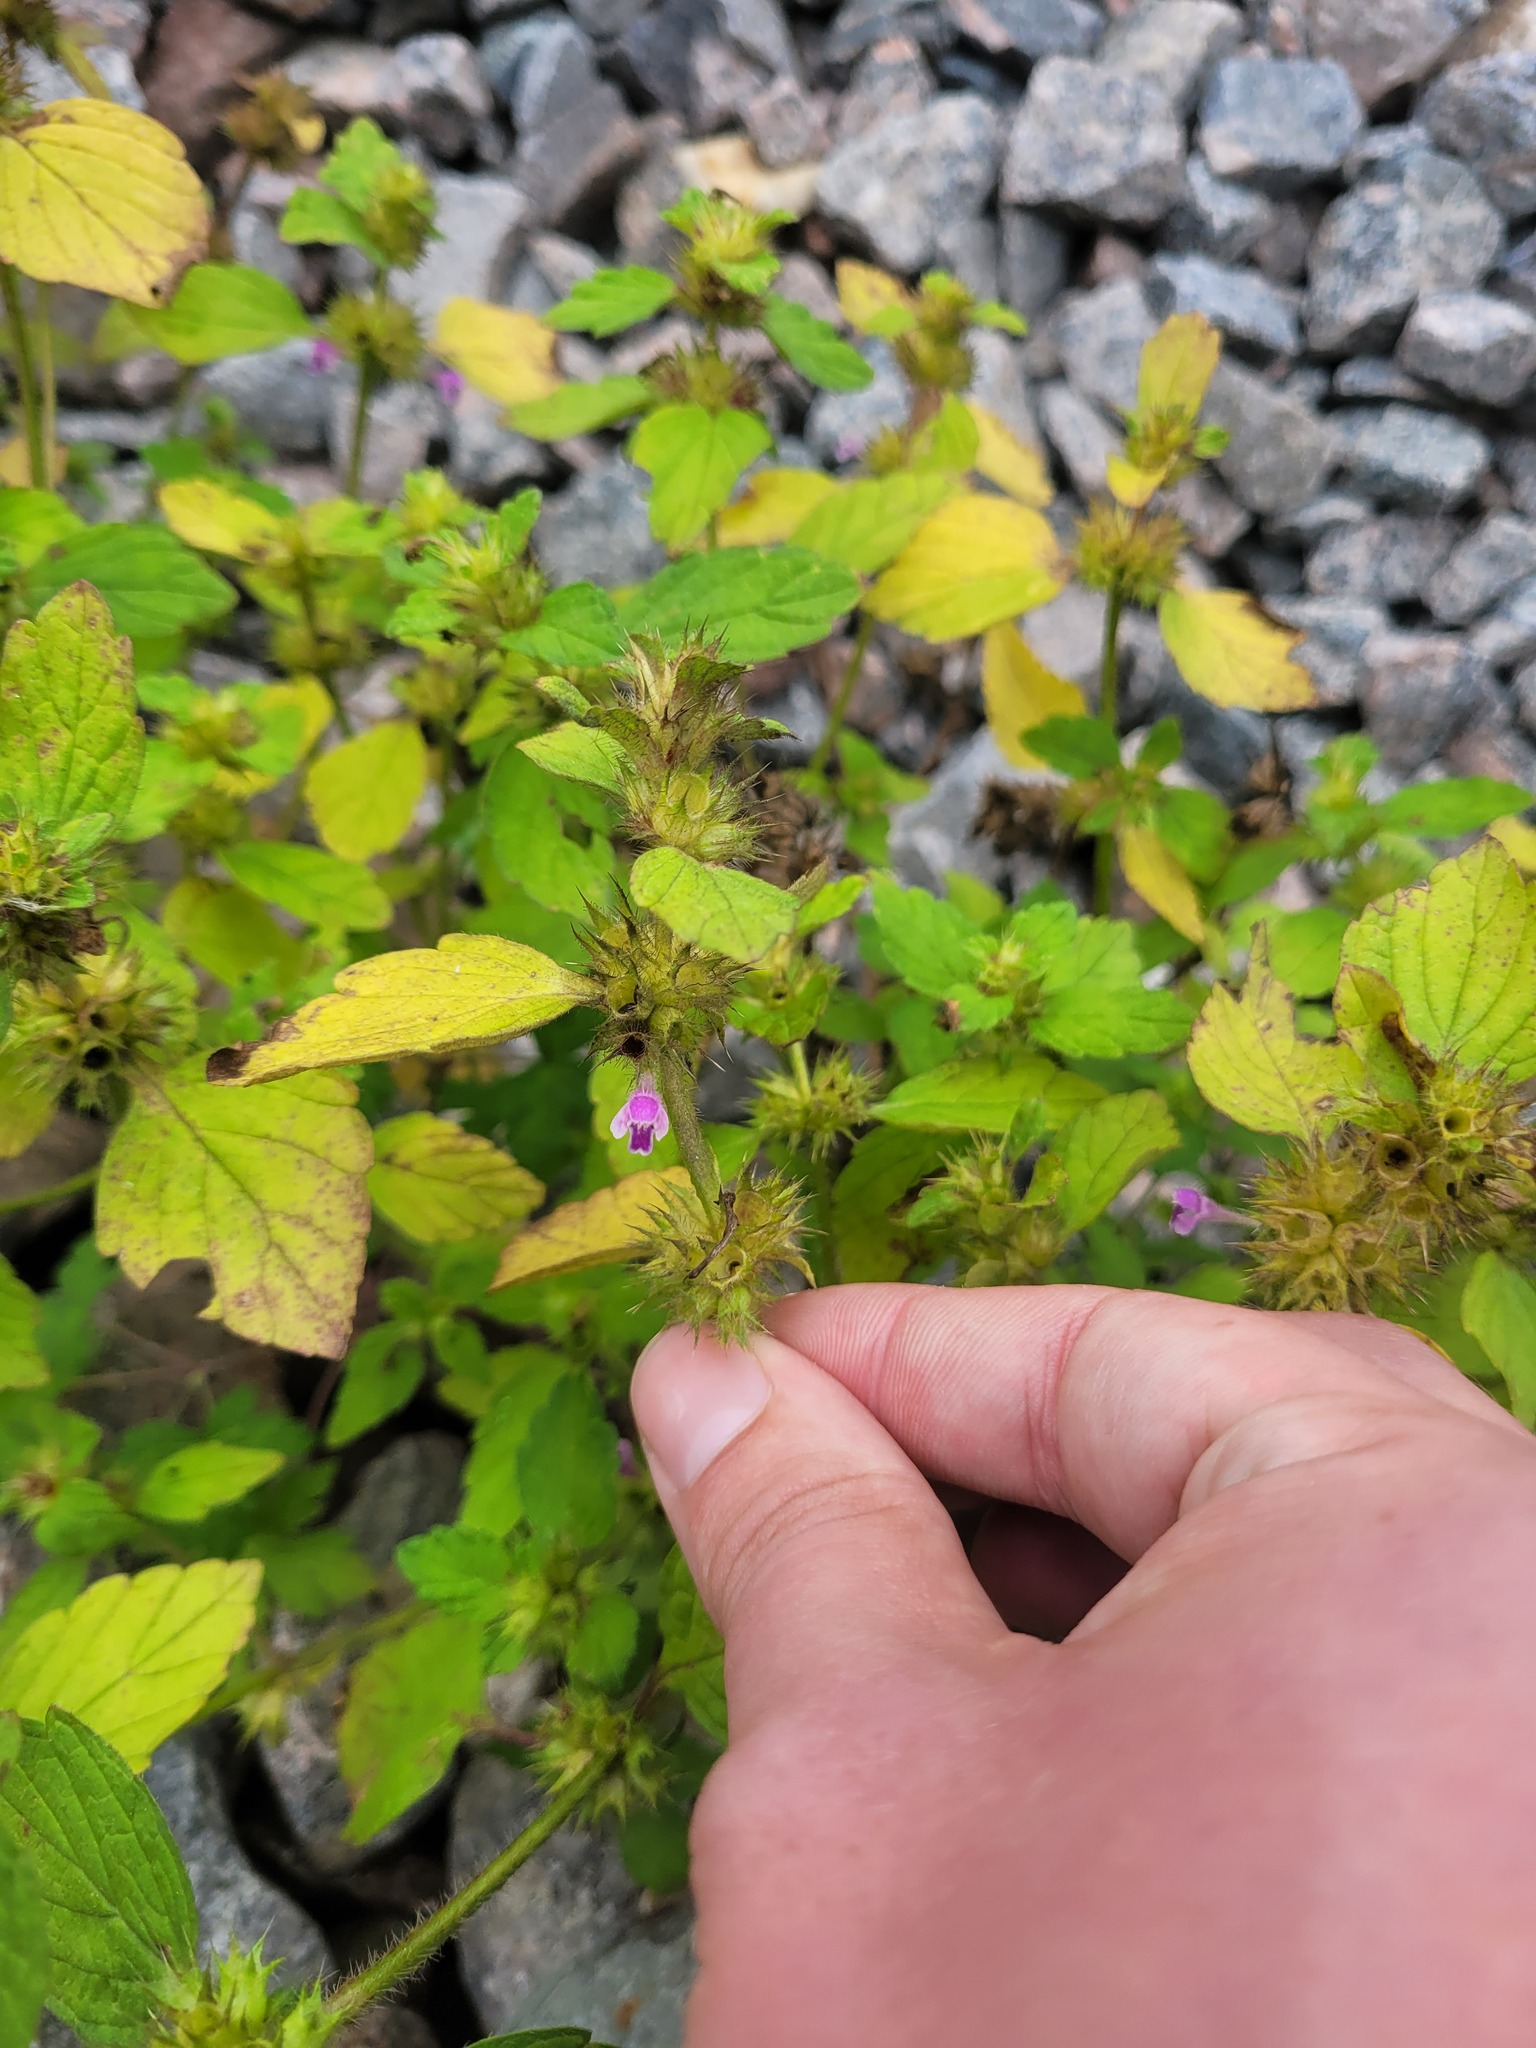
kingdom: Plantae
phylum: Tracheophyta
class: Magnoliopsida
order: Lamiales
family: Lamiaceae
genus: Galeopsis
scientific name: Galeopsis bifida
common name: Bifid hemp-nettle
